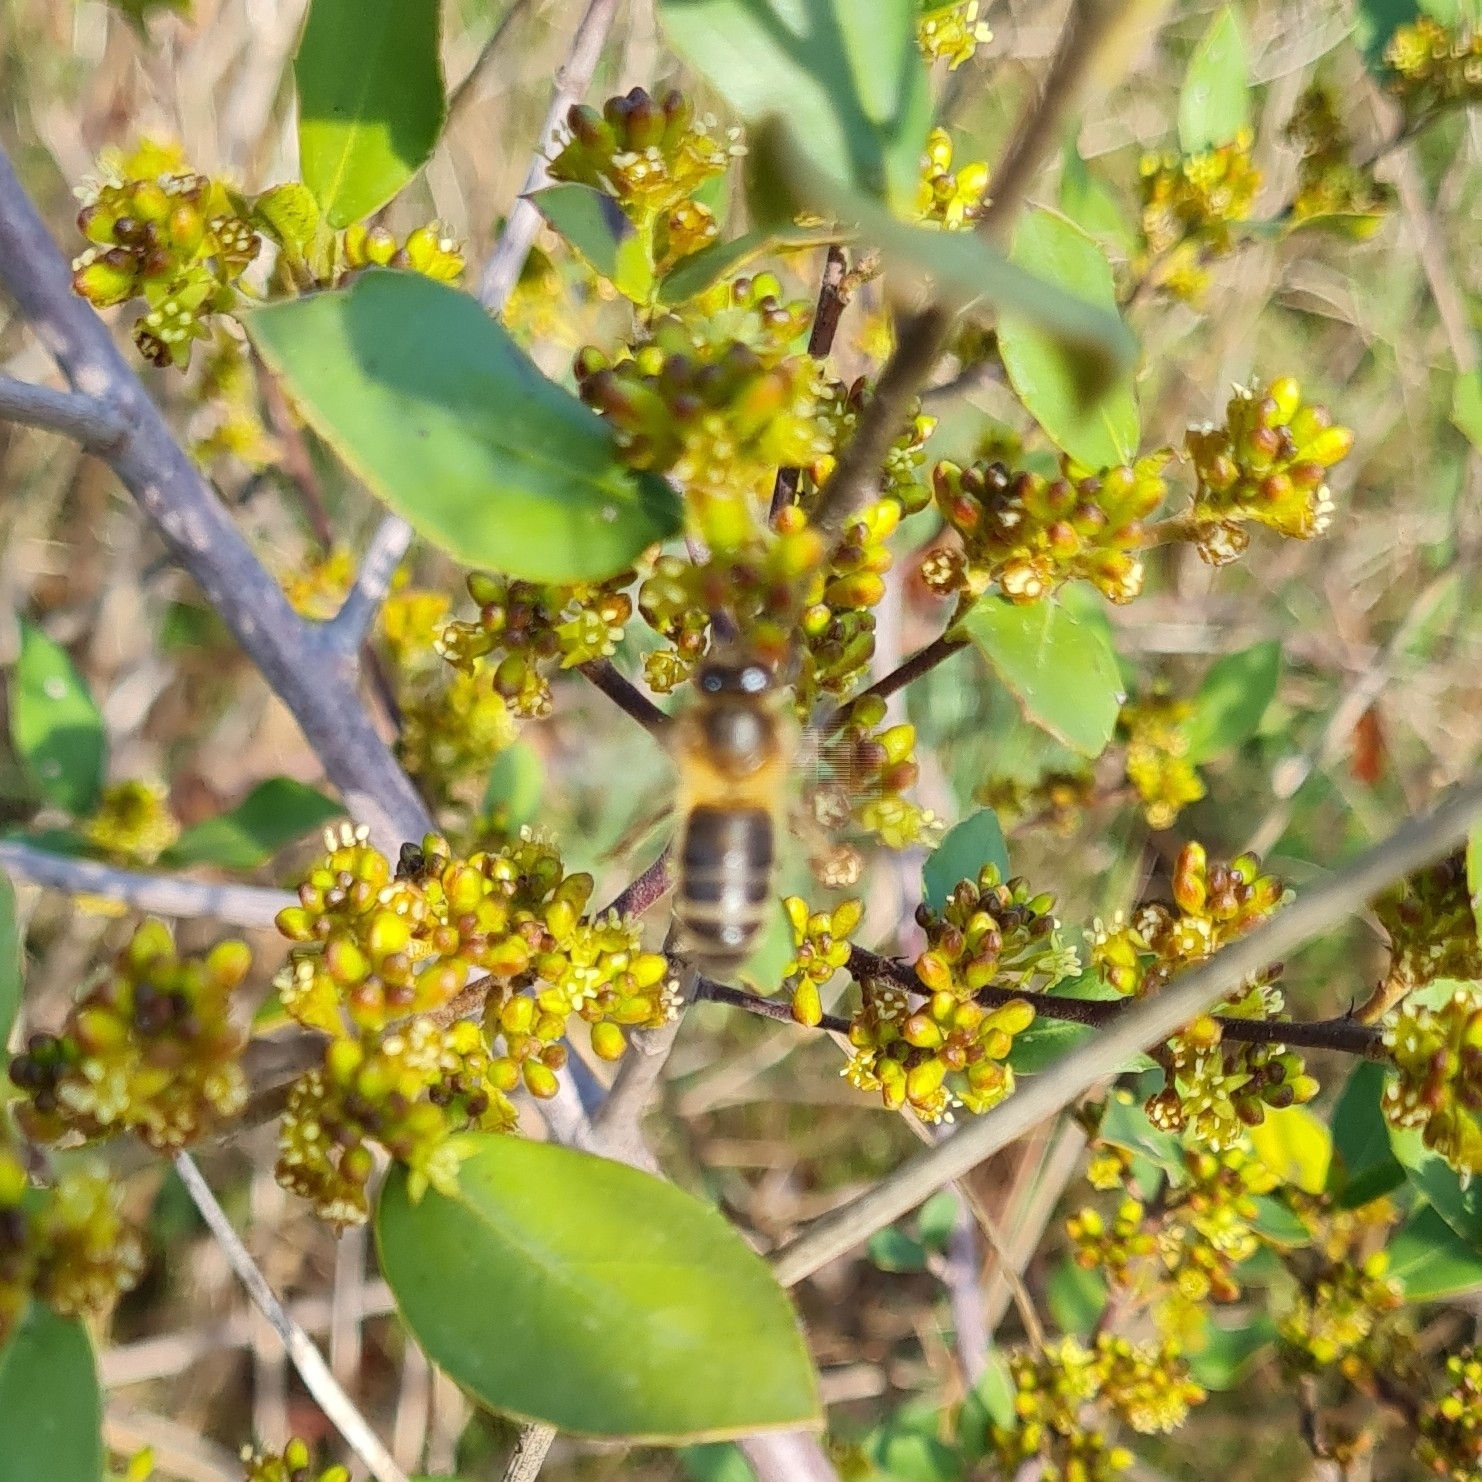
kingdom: Animalia
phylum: Arthropoda
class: Insecta
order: Hymenoptera
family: Apidae
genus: Apis
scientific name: Apis mellifera
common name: Honey bee
